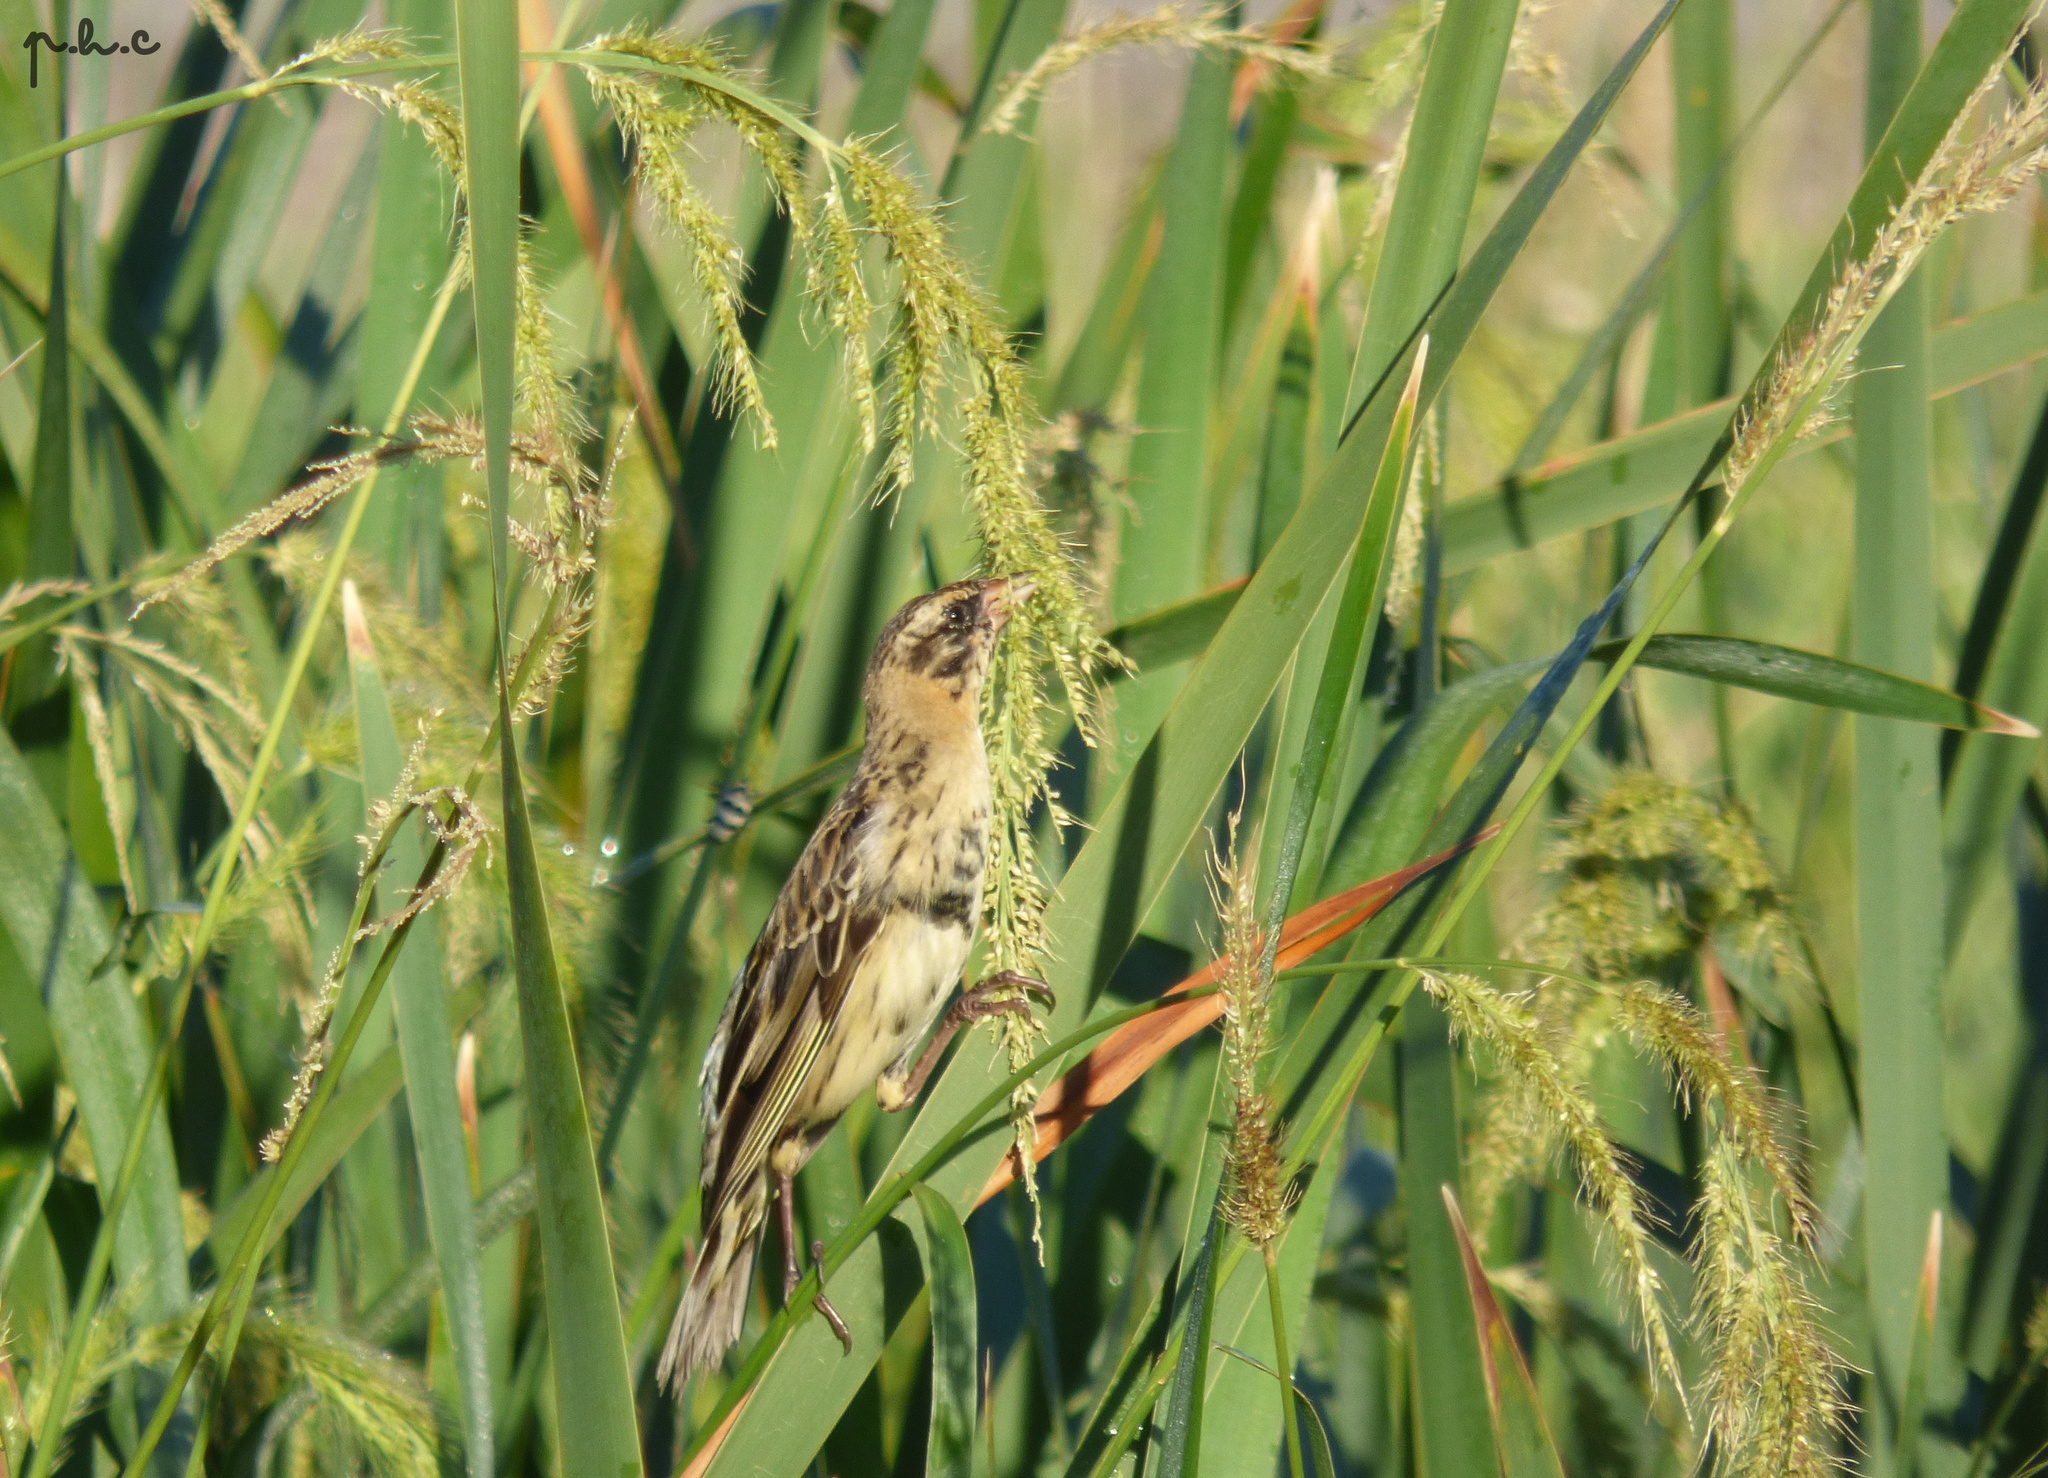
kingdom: Animalia
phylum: Chordata
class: Aves
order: Passeriformes
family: Icteridae
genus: Dolichonyx
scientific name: Dolichonyx oryzivorus
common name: Bobolink
